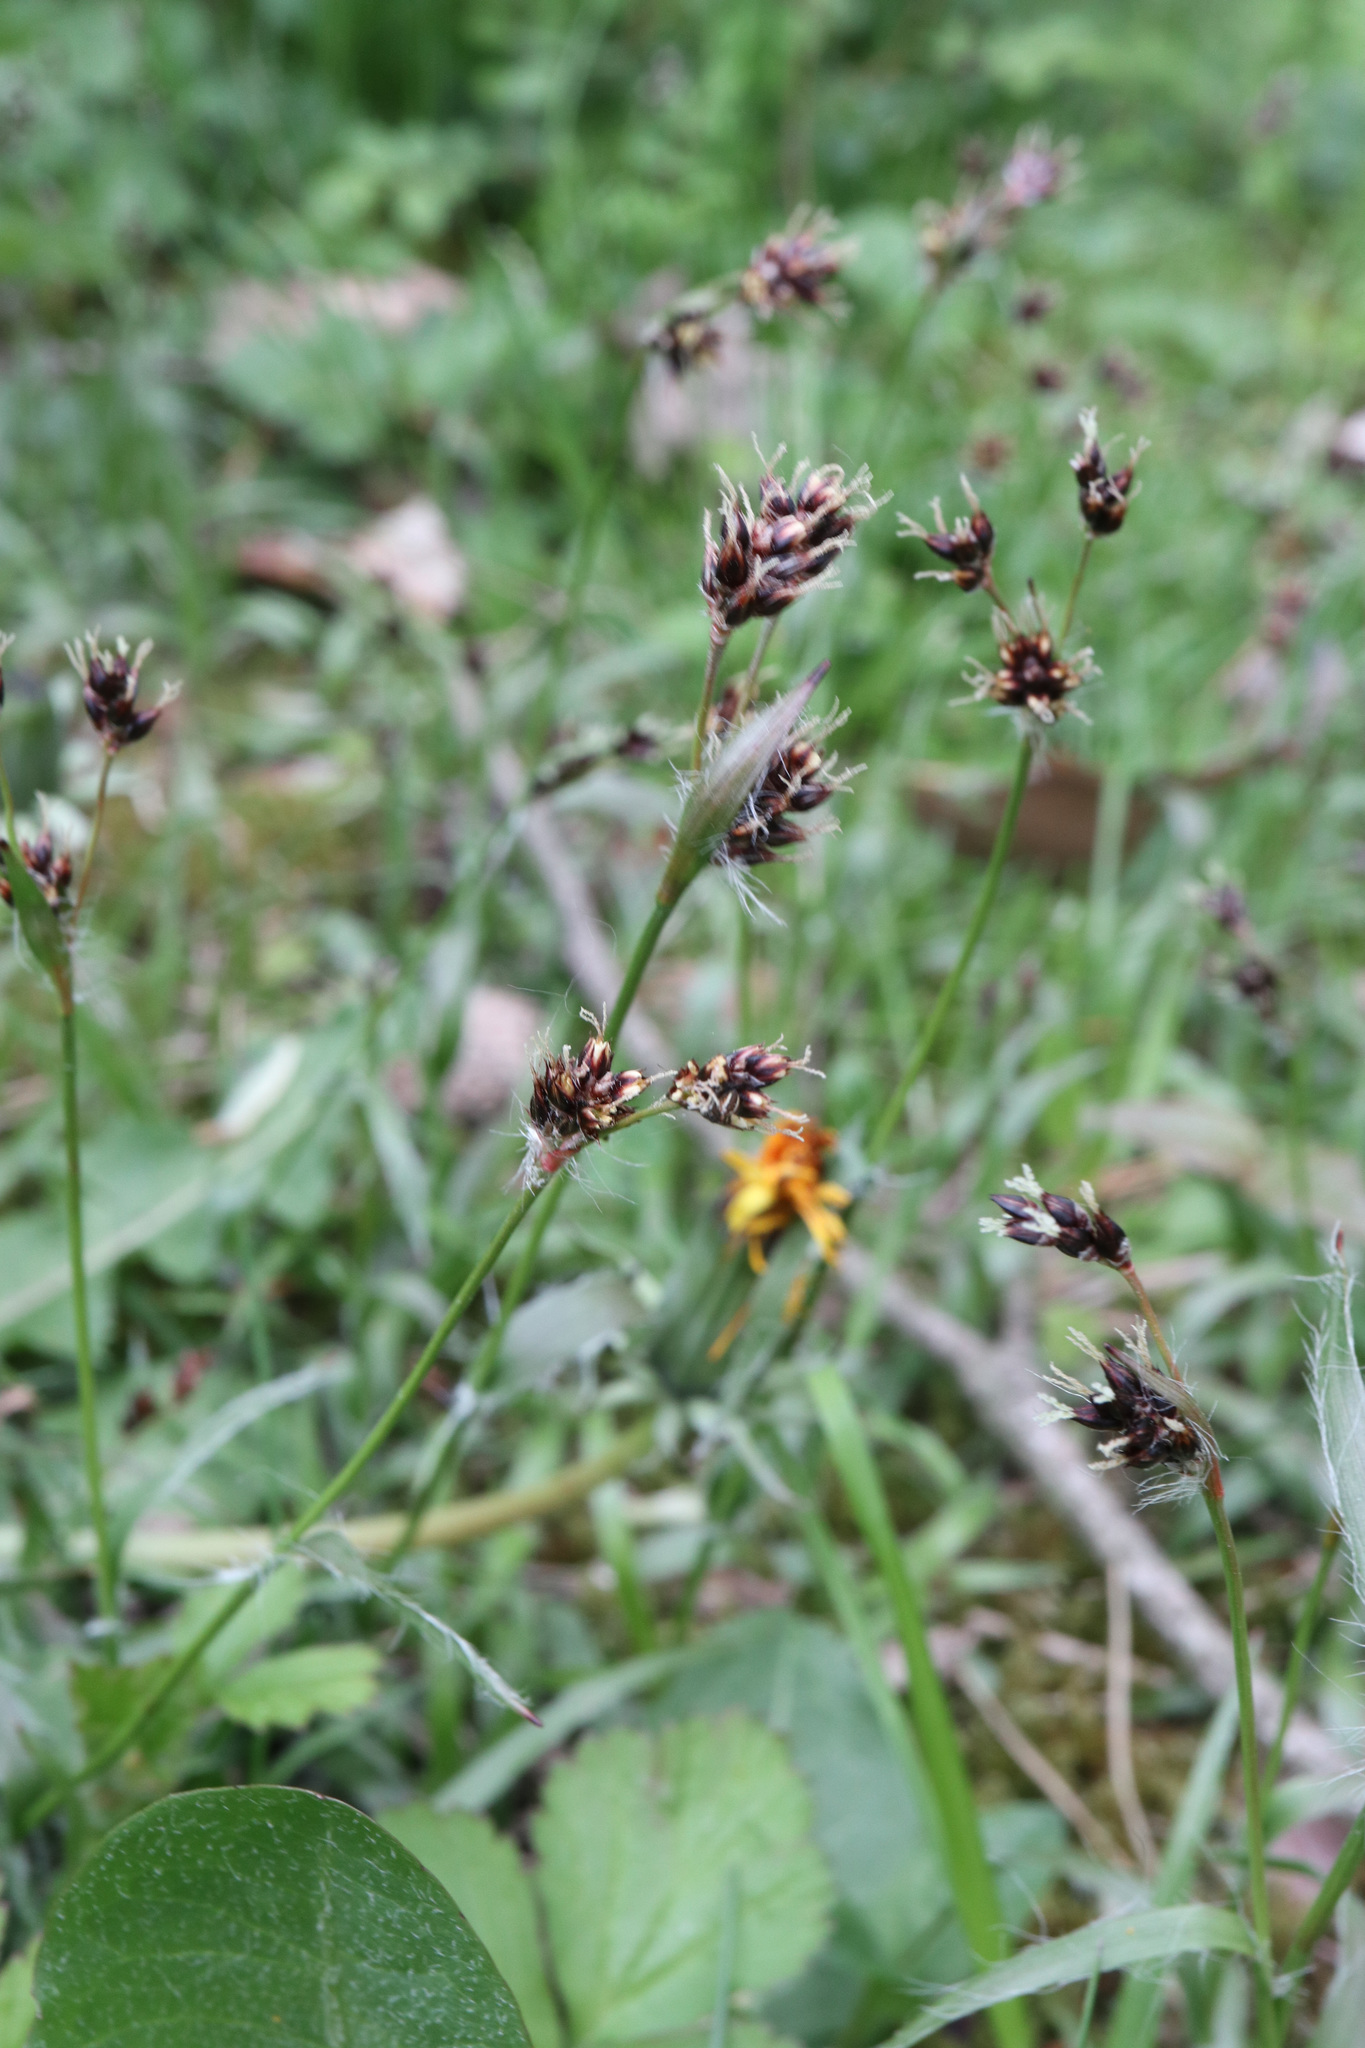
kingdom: Plantae
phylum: Tracheophyta
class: Liliopsida
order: Poales
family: Juncaceae
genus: Luzula
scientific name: Luzula campestris
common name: Field wood-rush
